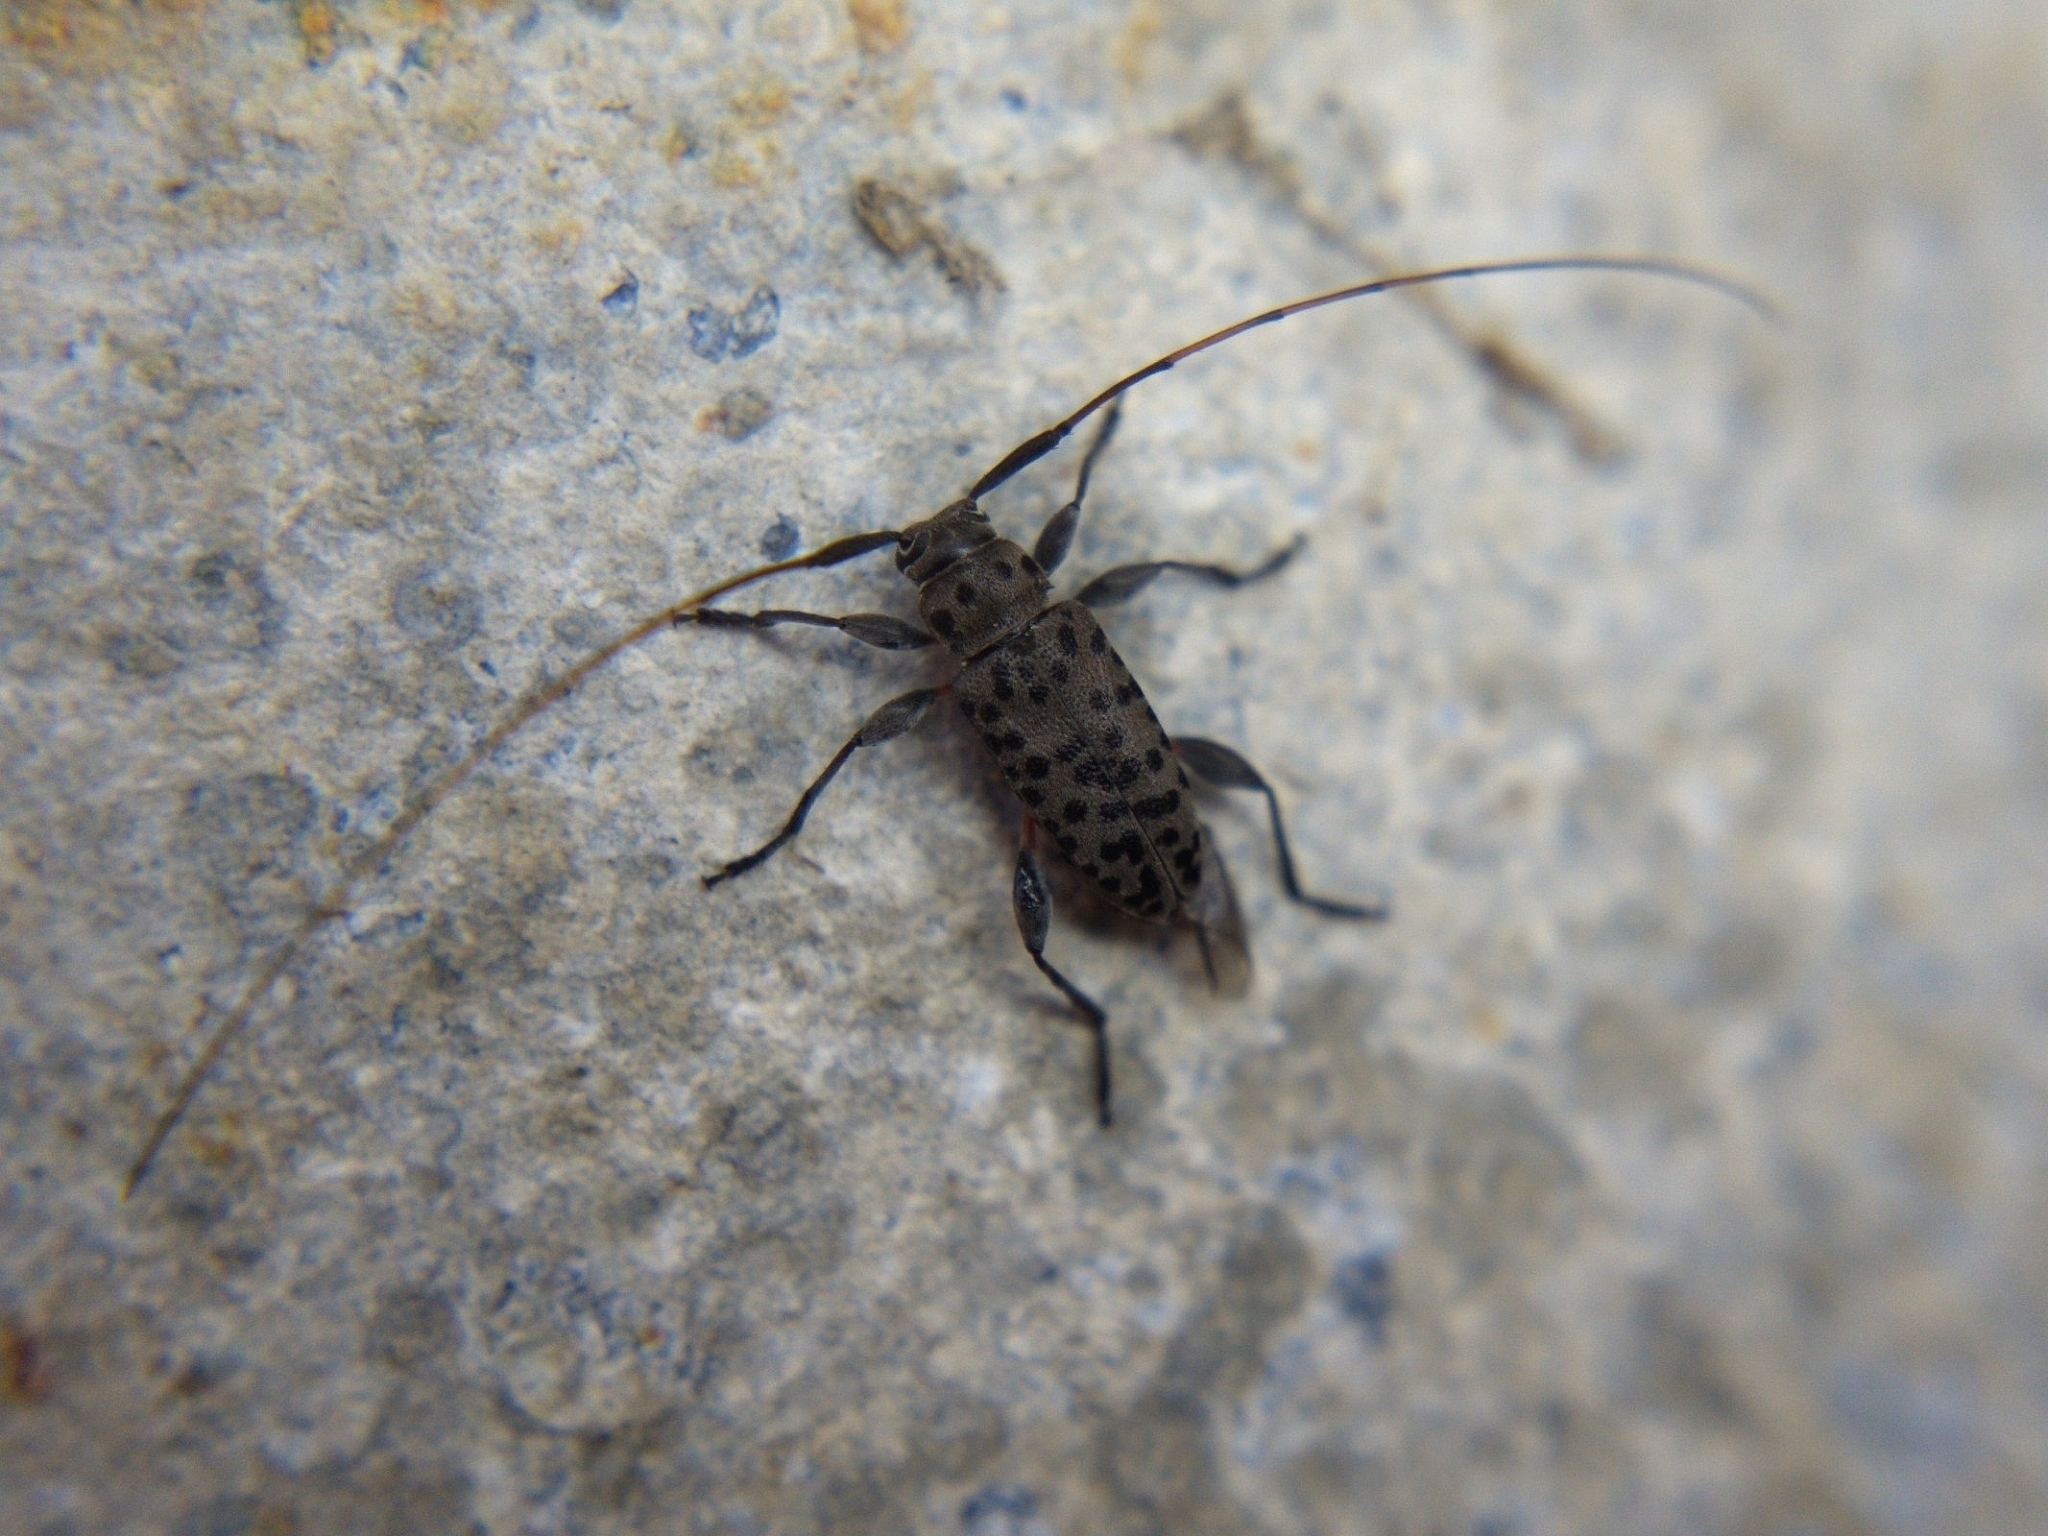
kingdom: Animalia
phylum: Arthropoda
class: Insecta
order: Coleoptera
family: Cerambycidae
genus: Hyperplatys
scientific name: Hyperplatys aspersa
